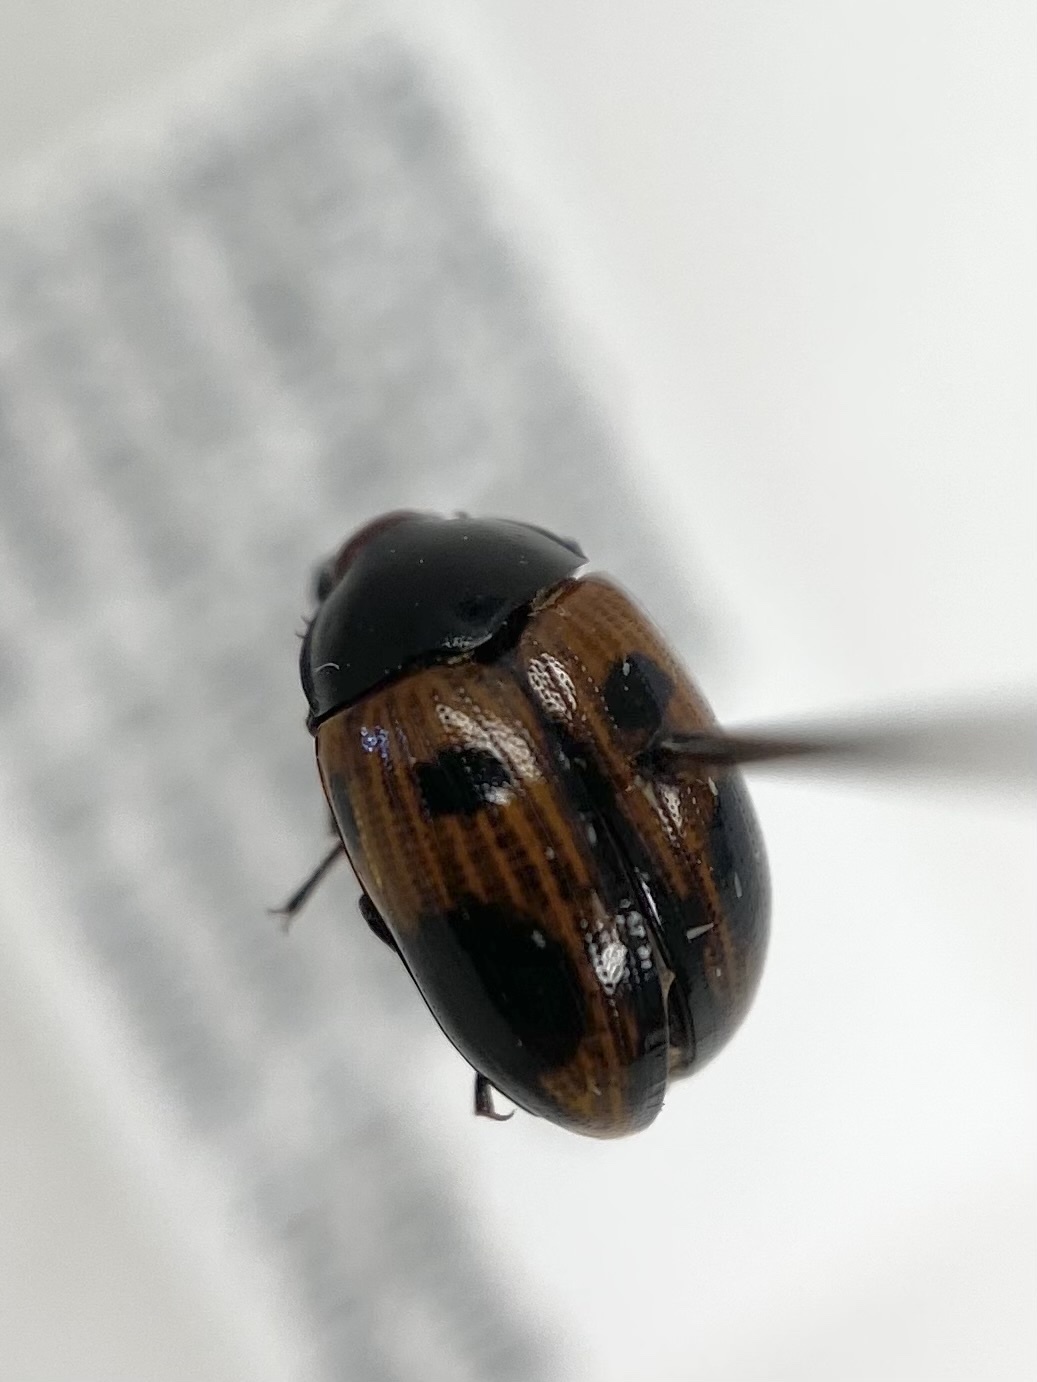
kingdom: Animalia
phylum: Arthropoda
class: Insecta
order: Coleoptera
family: Tenebrionidae
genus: Diaperis
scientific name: Diaperis maculata
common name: Darkling beetle
